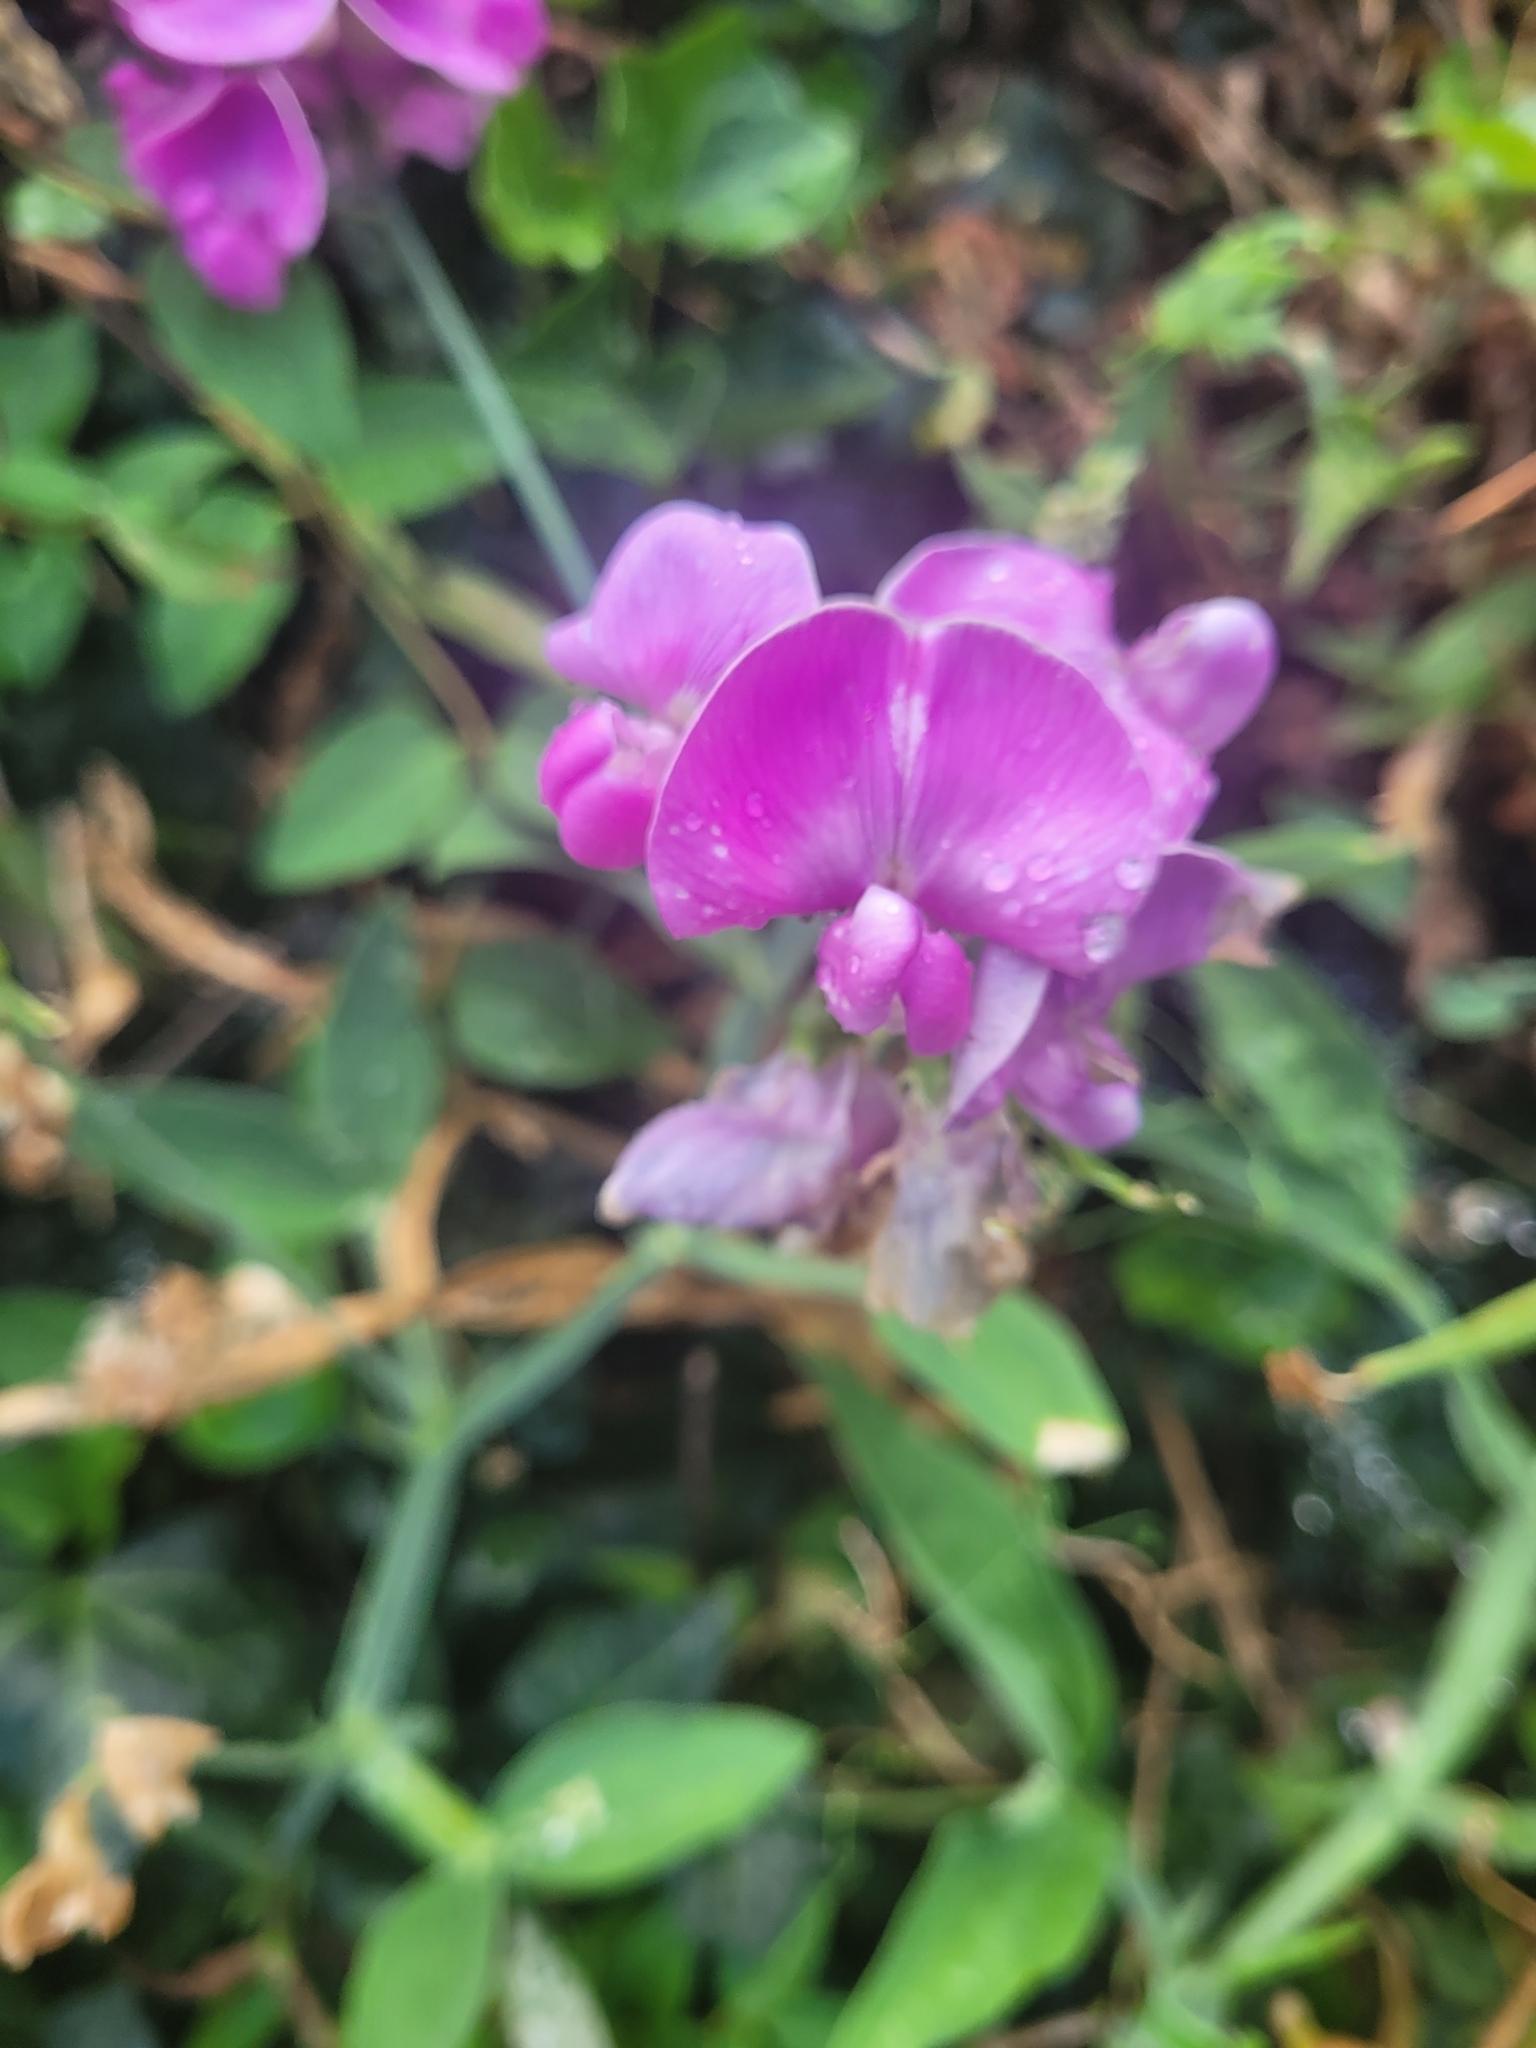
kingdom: Plantae
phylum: Tracheophyta
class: Magnoliopsida
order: Fabales
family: Fabaceae
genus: Lathyrus
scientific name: Lathyrus latifolius
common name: Perennial pea
